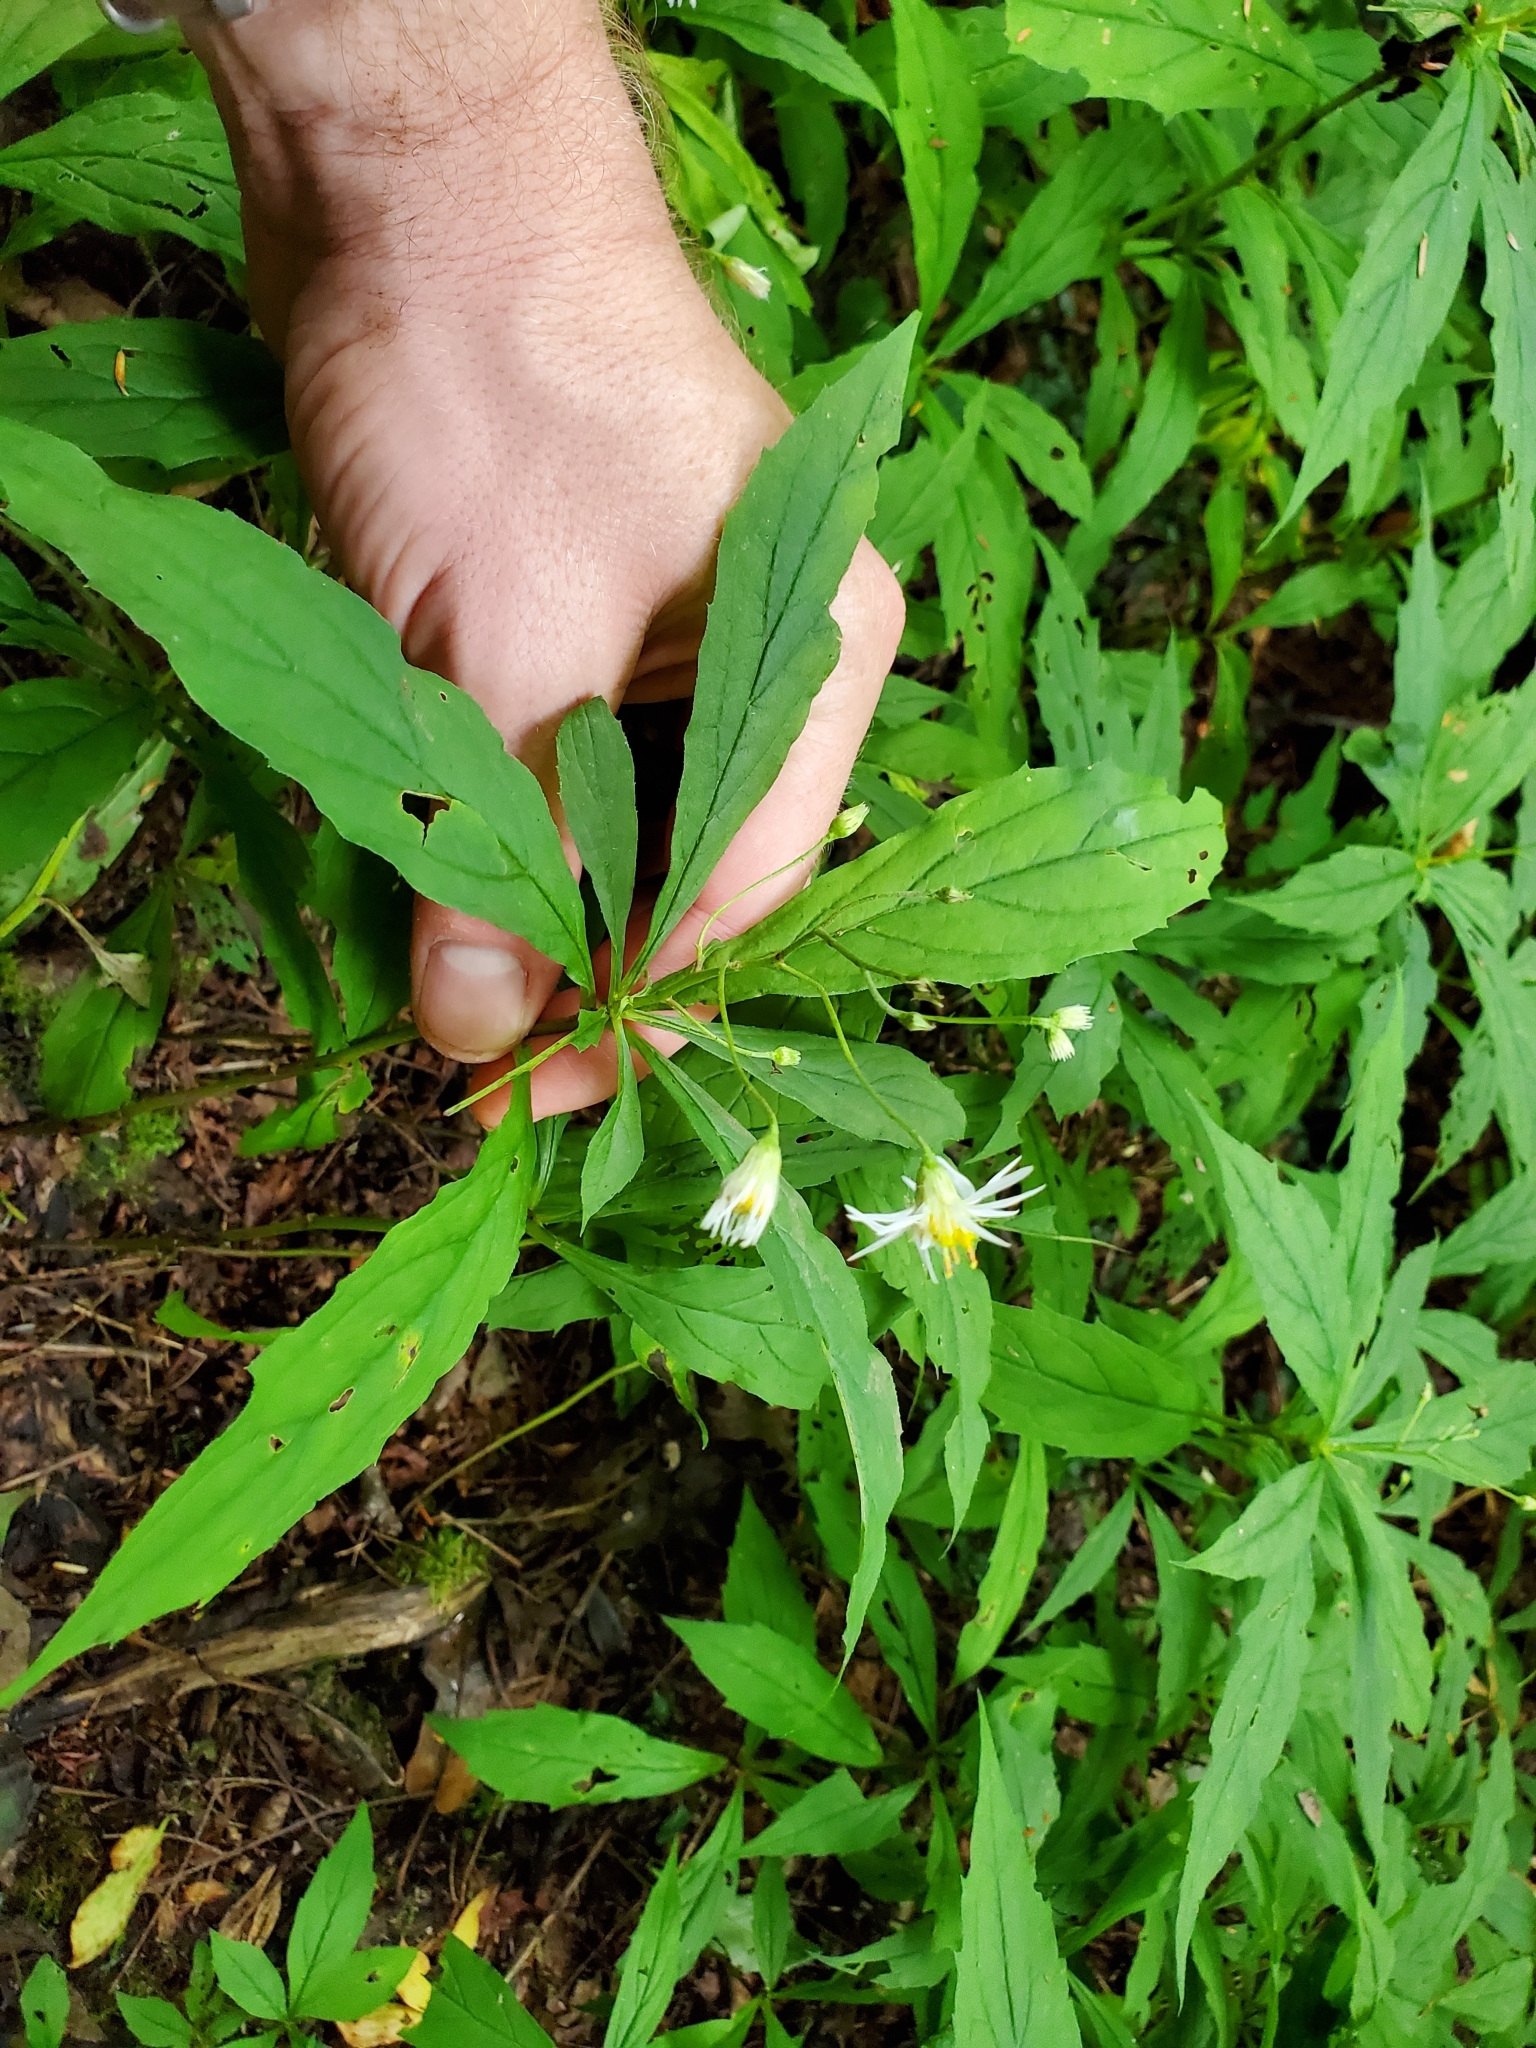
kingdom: Plantae
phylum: Tracheophyta
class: Magnoliopsida
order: Asterales
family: Asteraceae
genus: Oclemena
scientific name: Oclemena acuminata
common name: Mountain aster
